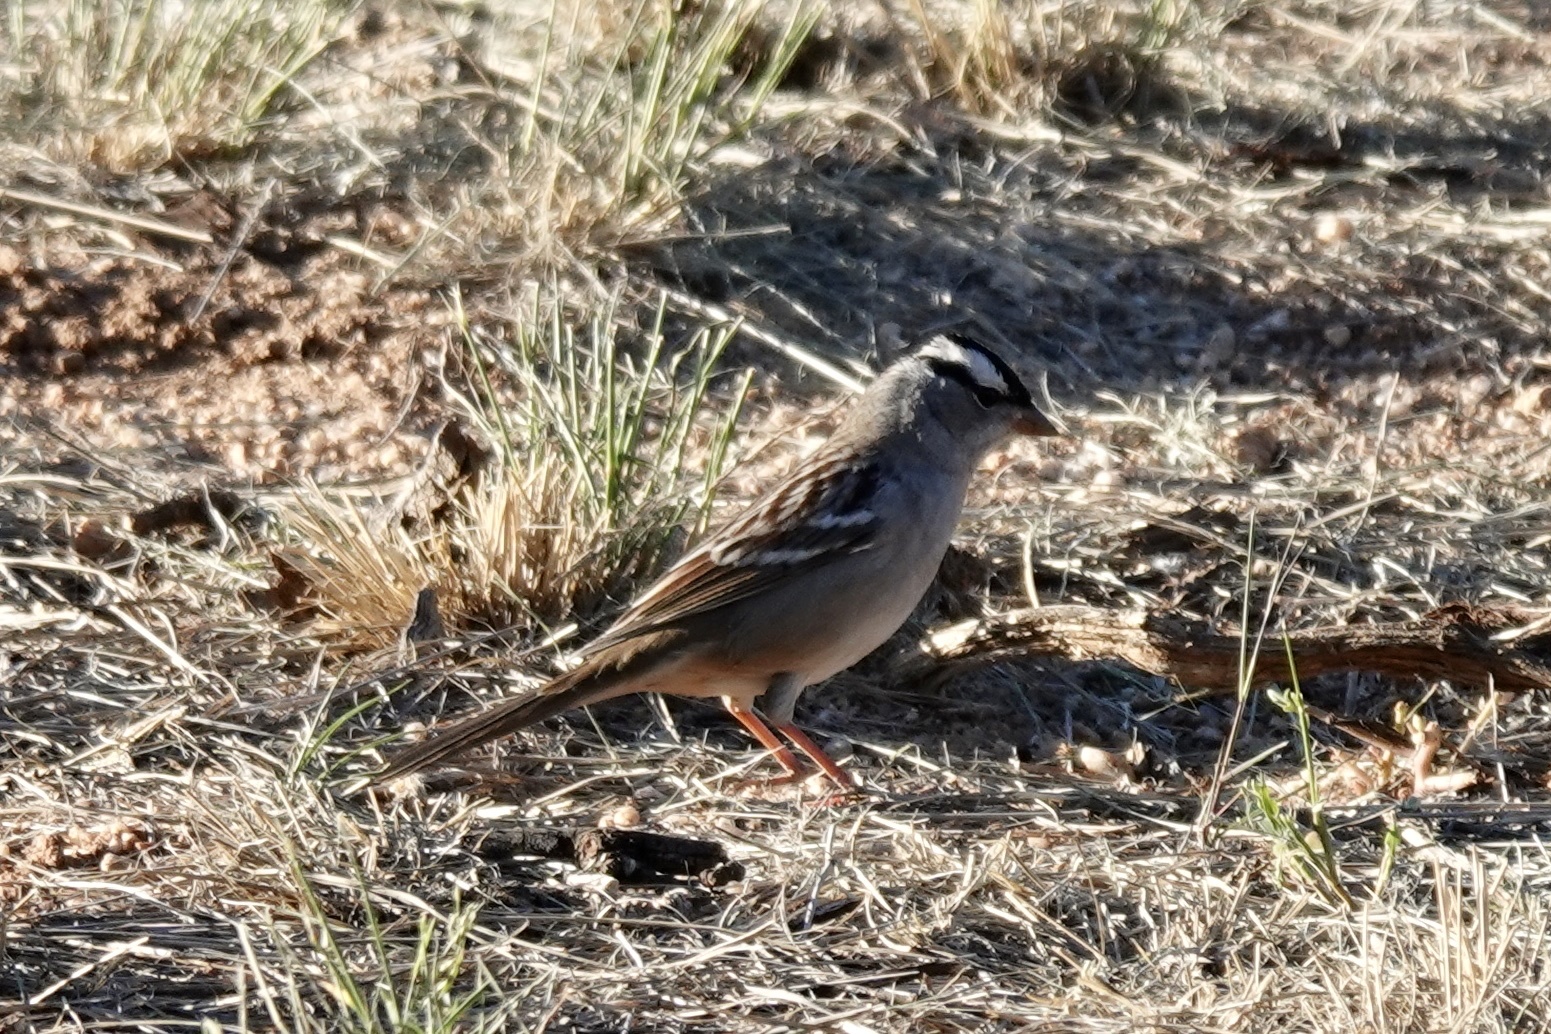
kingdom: Animalia
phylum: Chordata
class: Aves
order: Passeriformes
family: Passerellidae
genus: Zonotrichia
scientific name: Zonotrichia leucophrys
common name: White-crowned sparrow
